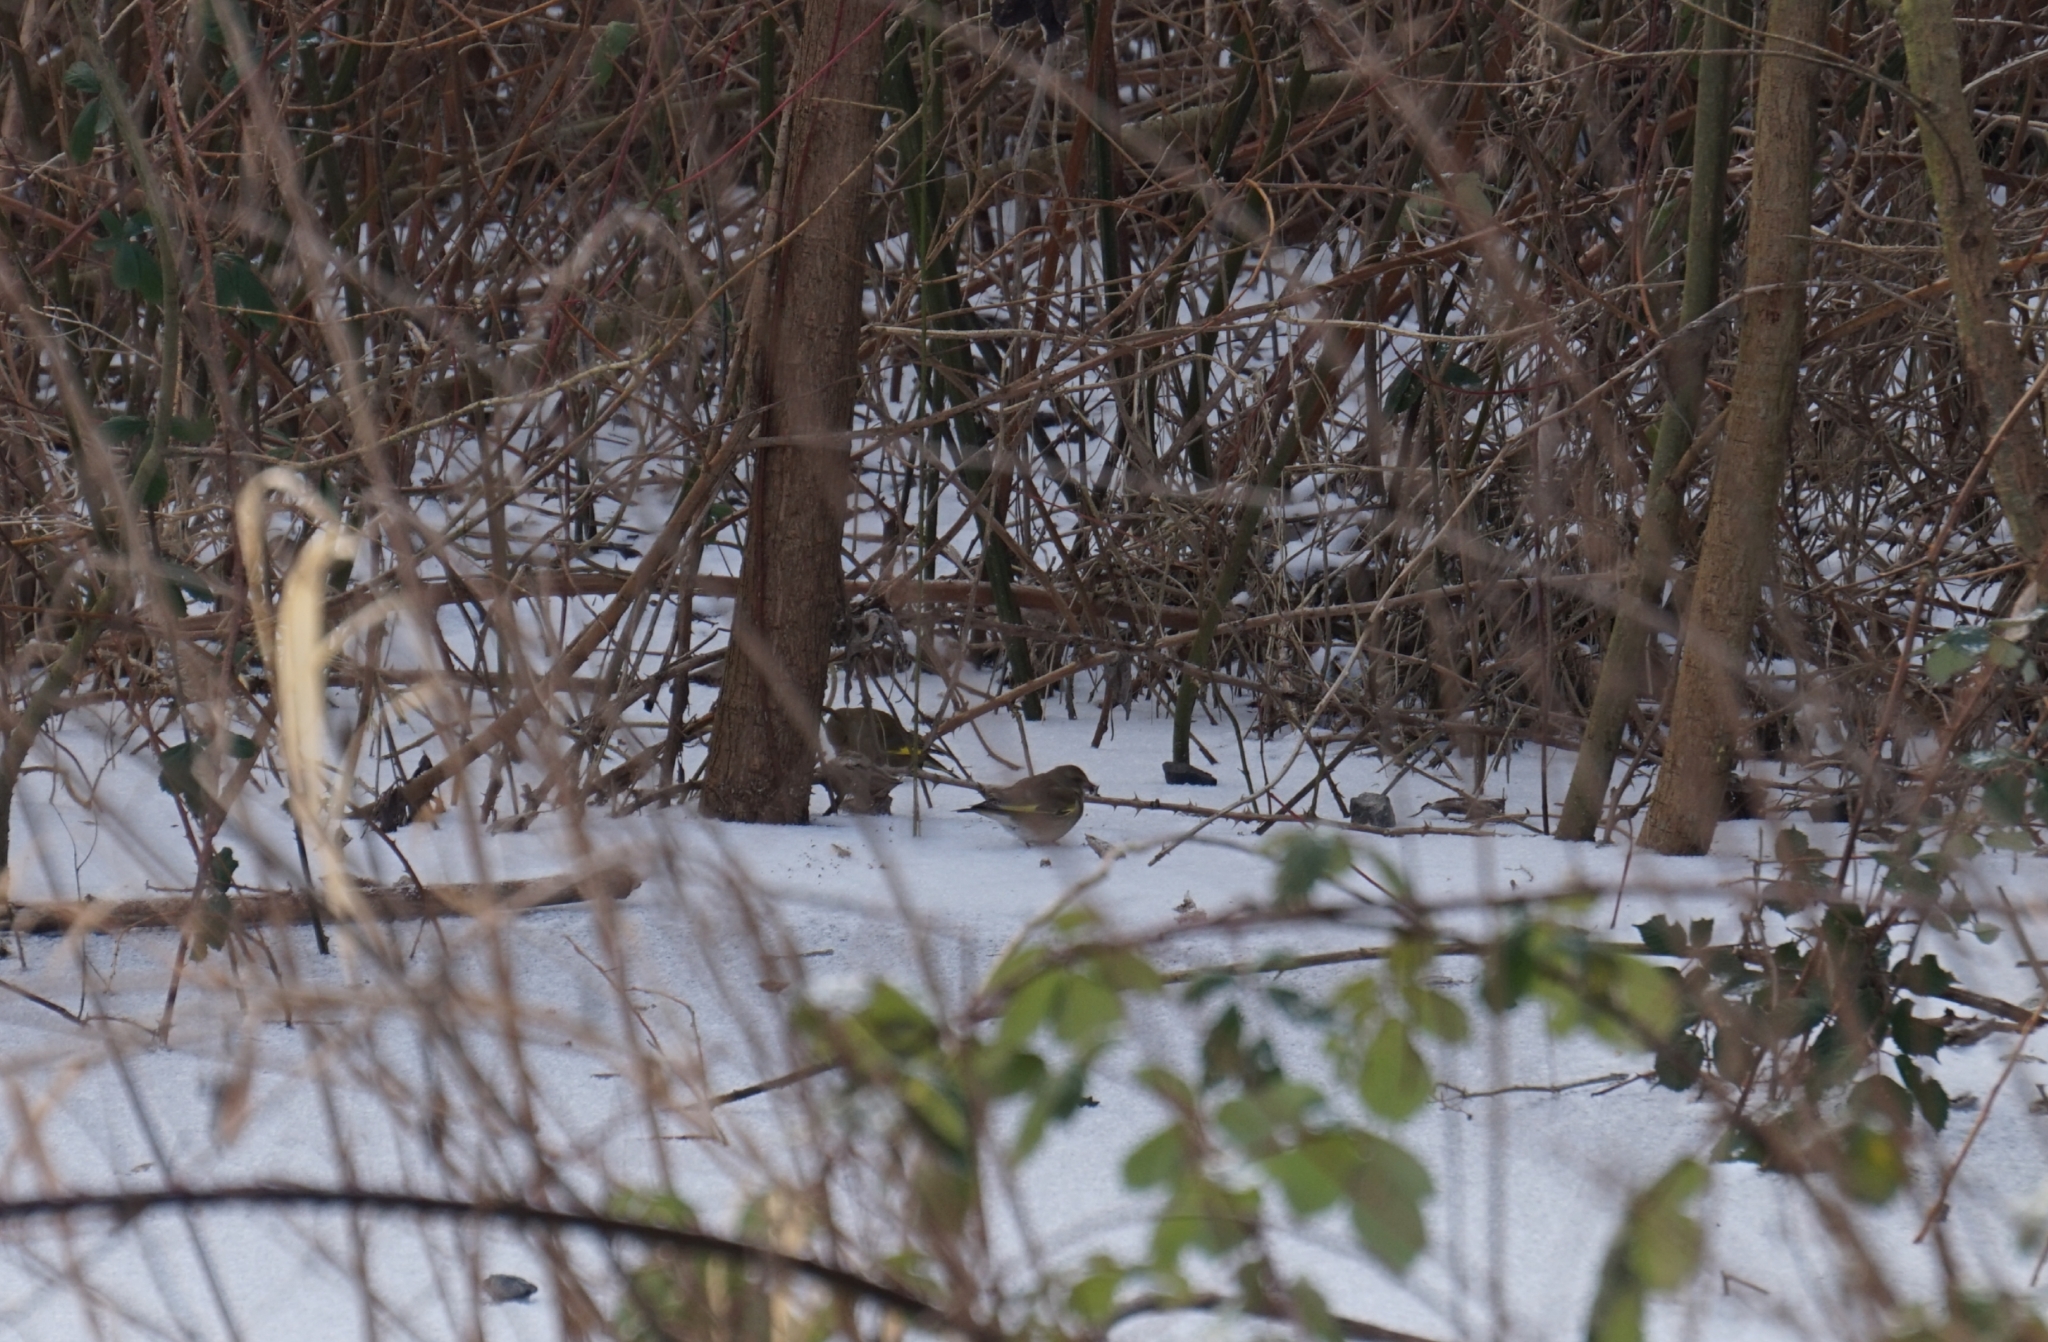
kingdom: Plantae
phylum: Tracheophyta
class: Liliopsida
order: Poales
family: Poaceae
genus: Chloris
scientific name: Chloris chloris
